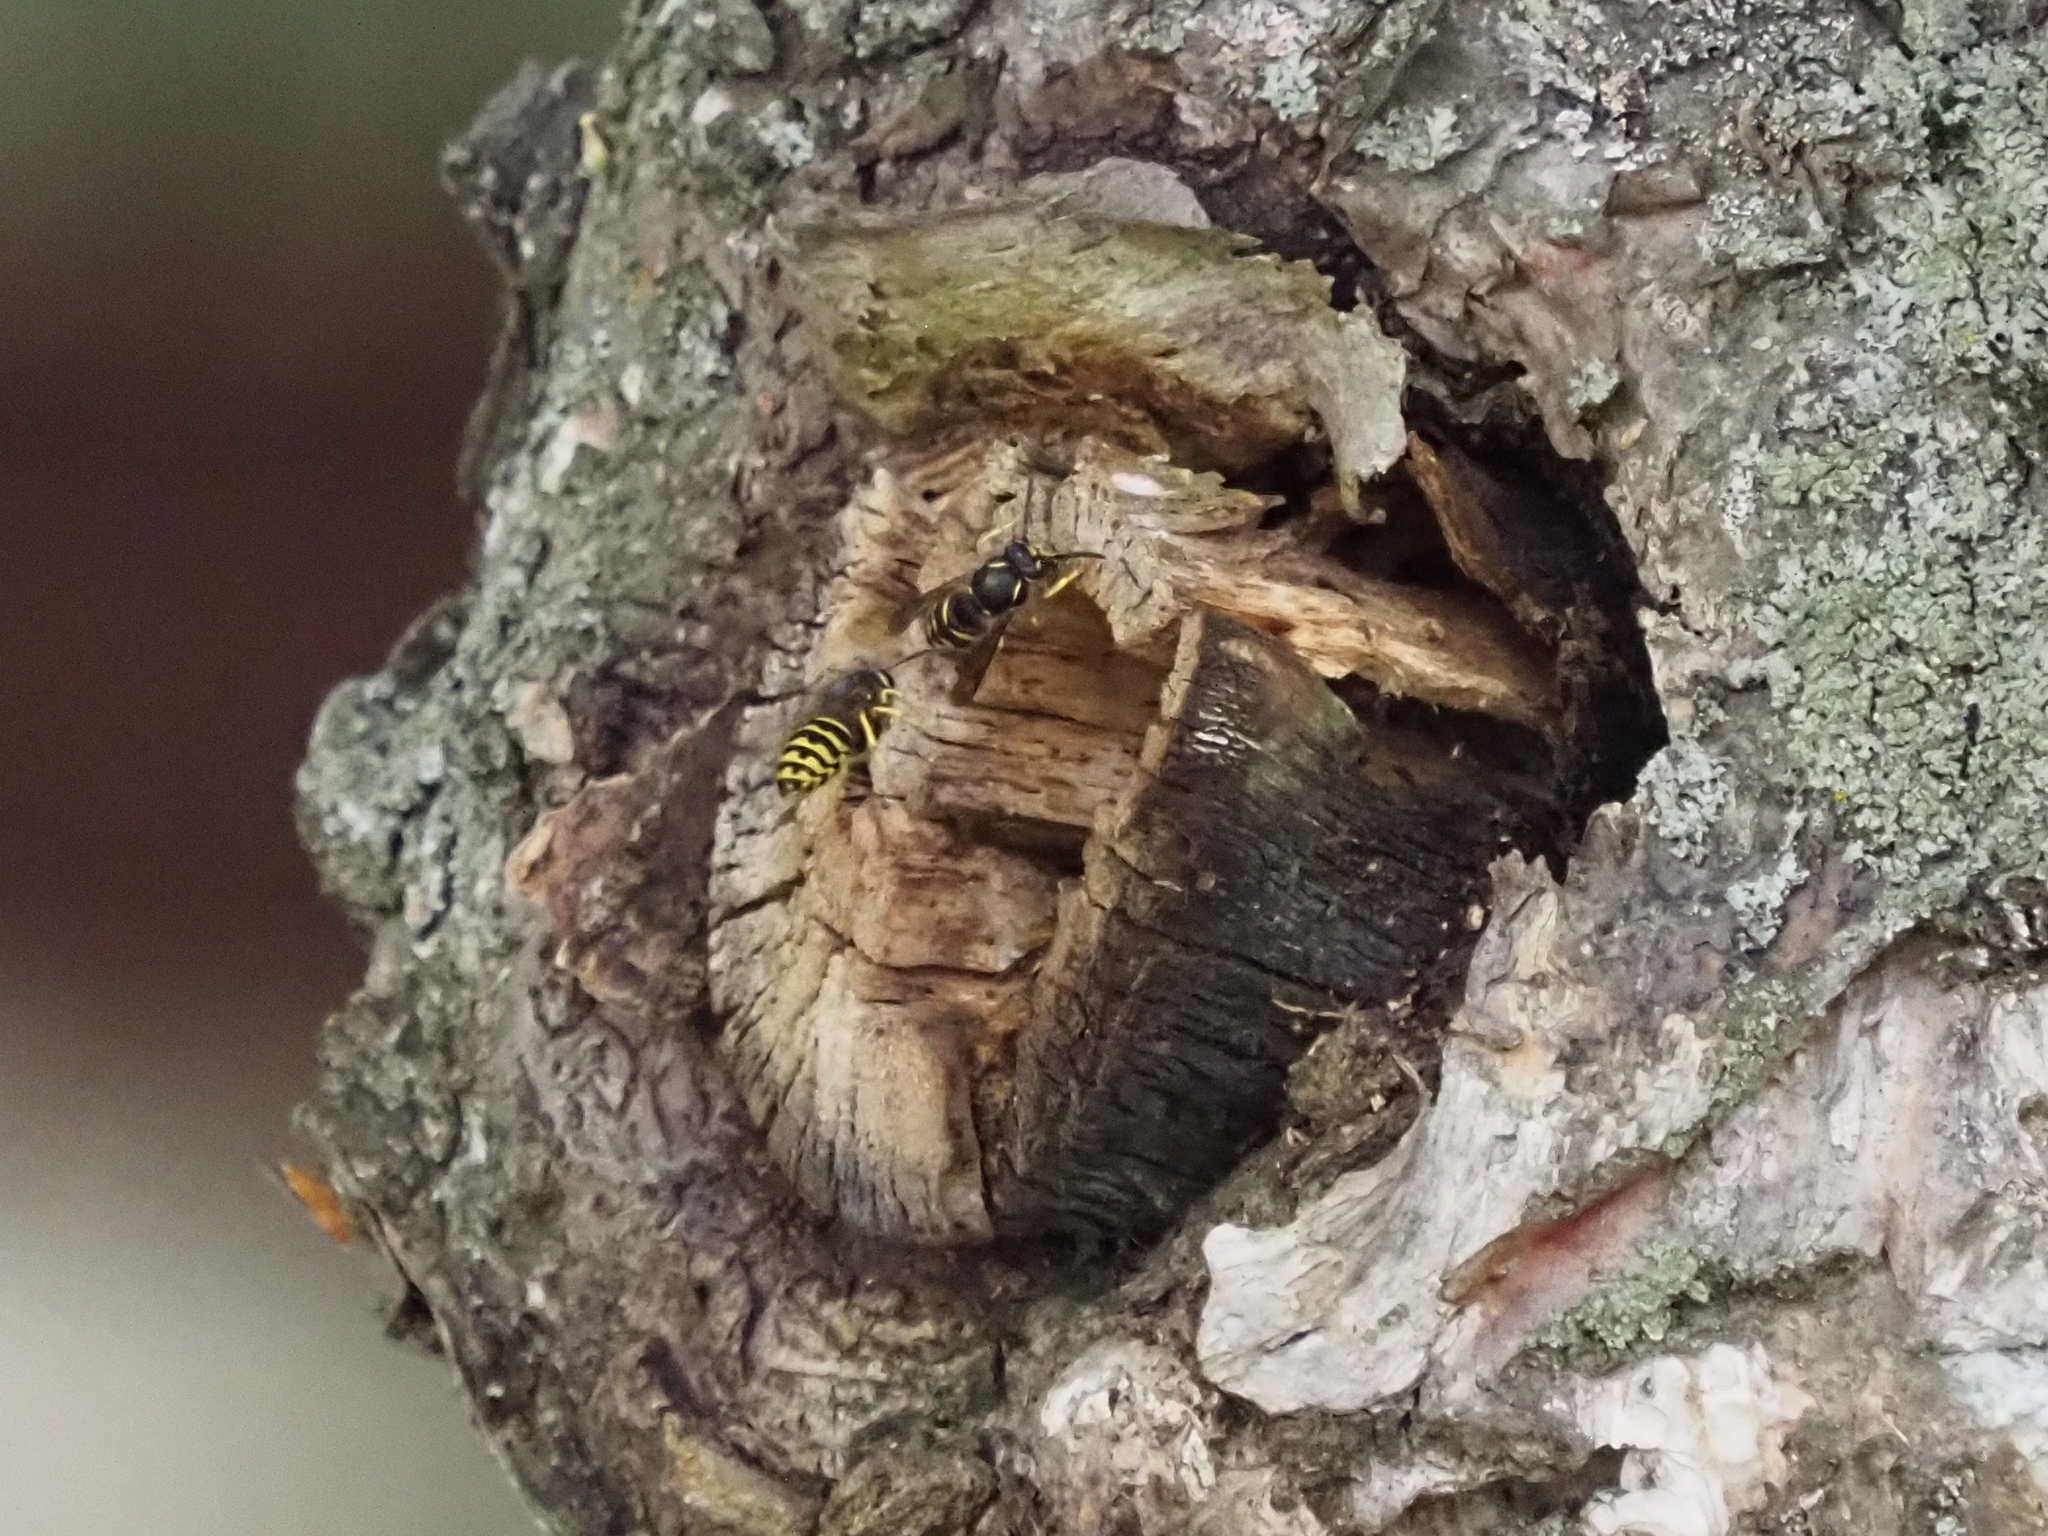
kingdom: Animalia
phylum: Arthropoda
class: Insecta
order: Hymenoptera
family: Vespidae
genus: Dolichovespula
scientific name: Dolichovespula arenaria
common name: Aerial yellowjacket
